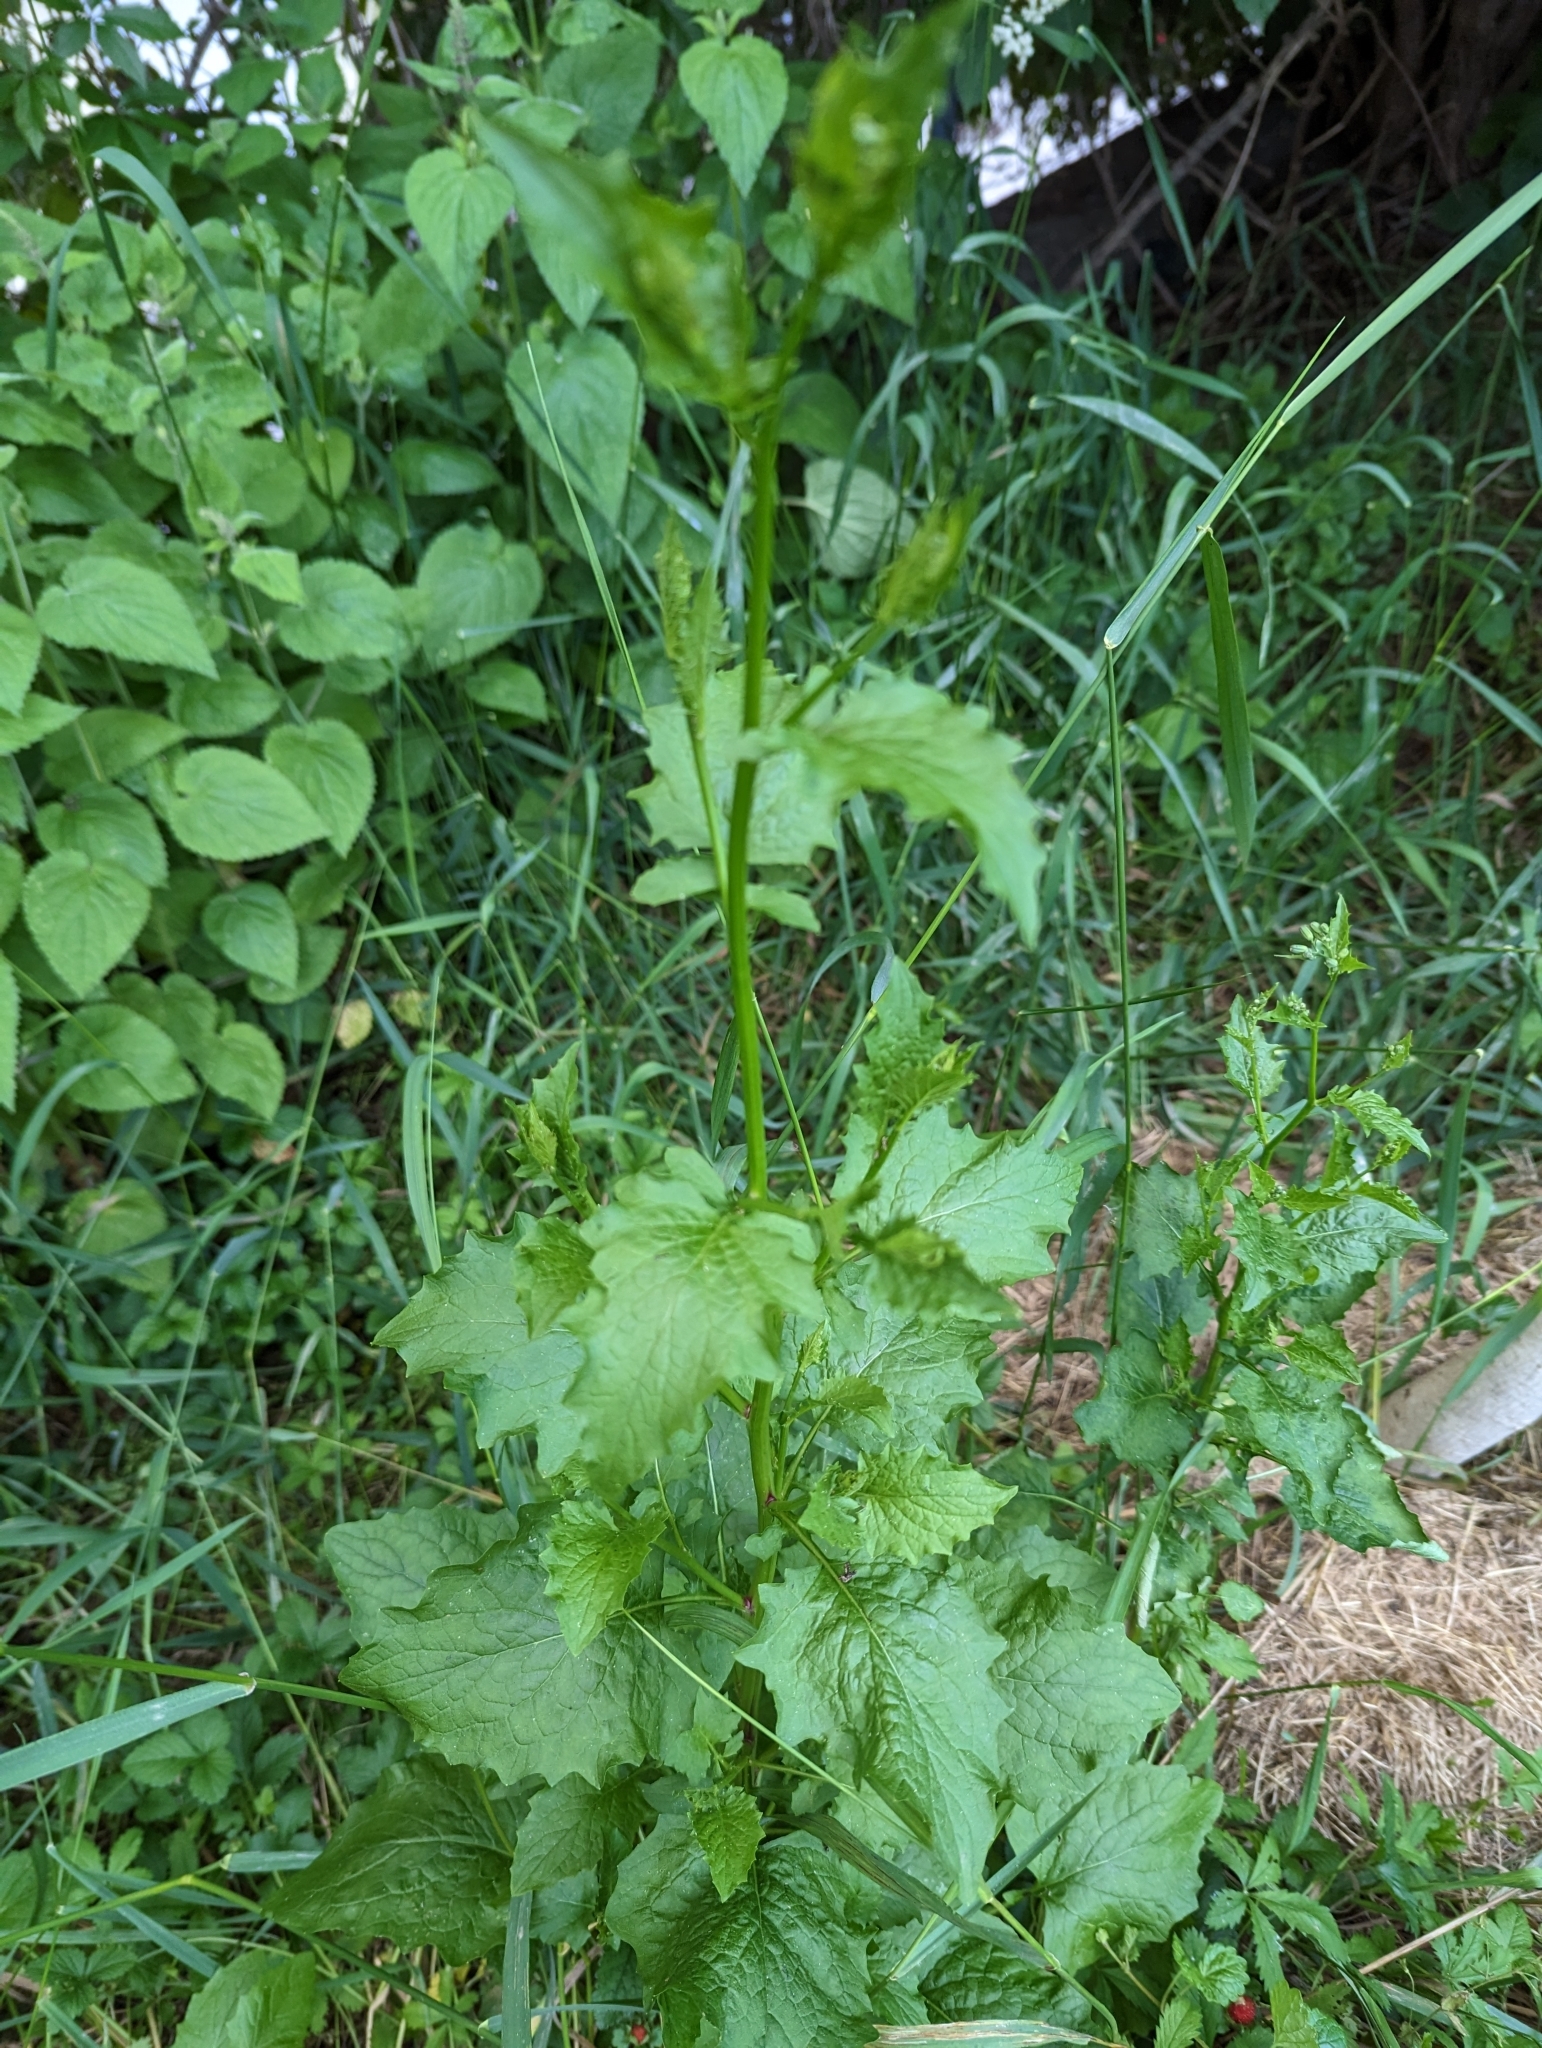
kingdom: Plantae
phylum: Tracheophyta
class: Magnoliopsida
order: Asterales
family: Asteraceae
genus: Lapsana
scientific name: Lapsana communis
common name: Nipplewort
